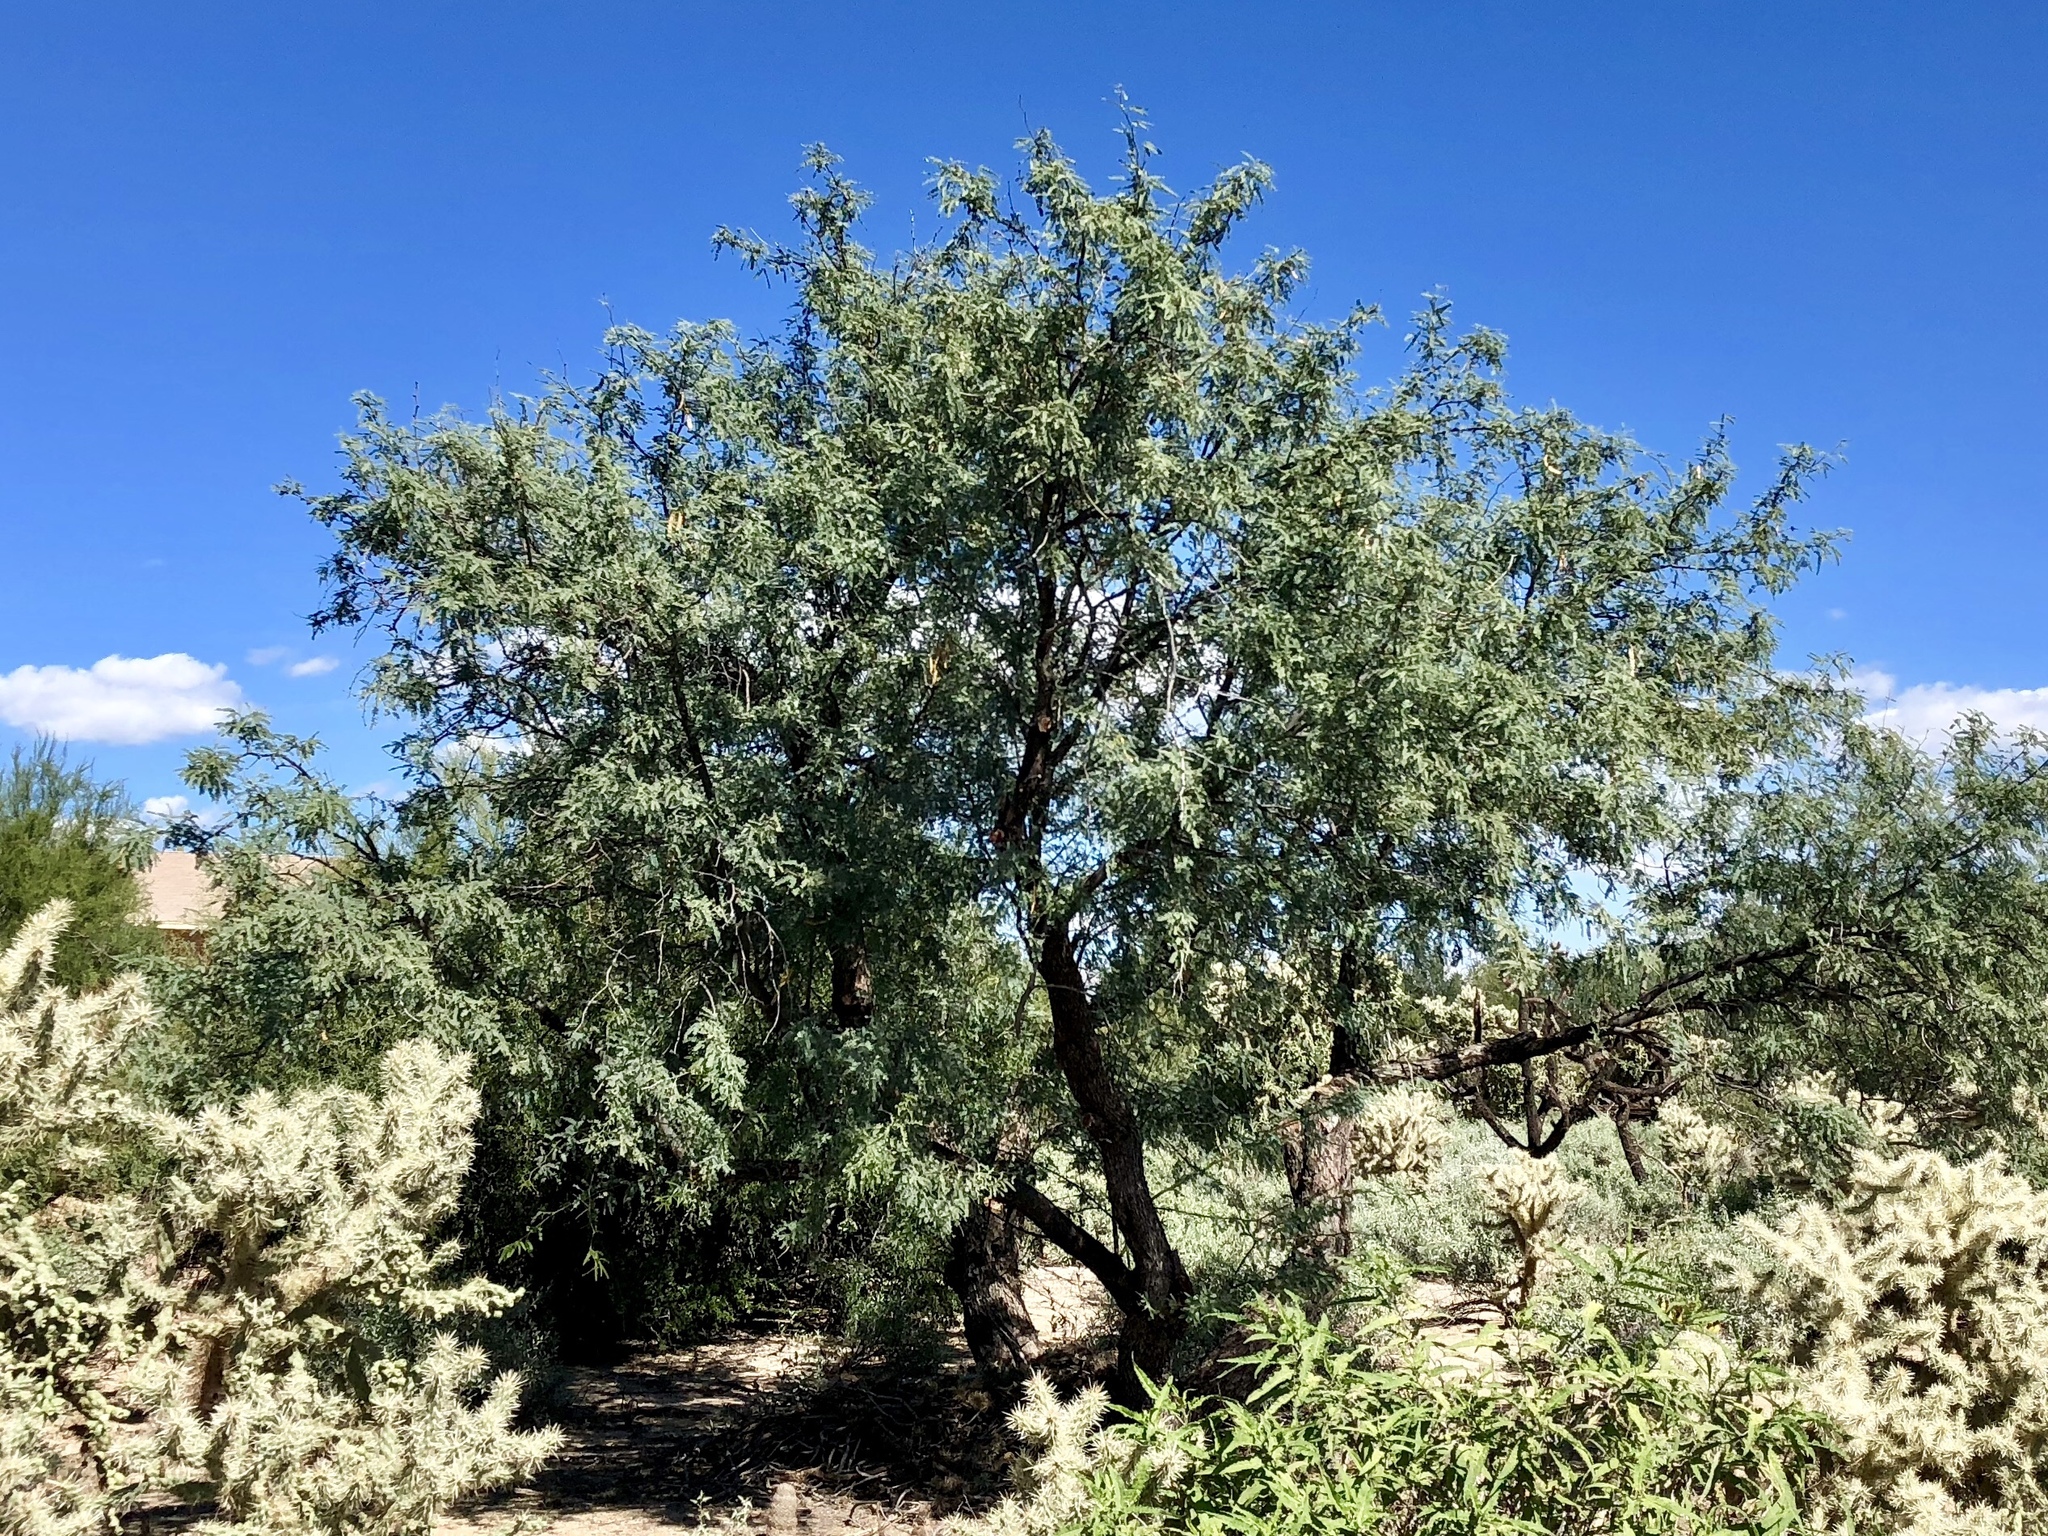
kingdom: Plantae
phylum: Tracheophyta
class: Magnoliopsida
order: Fabales
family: Fabaceae
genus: Prosopis
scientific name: Prosopis velutina
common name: Velvet mesquite
